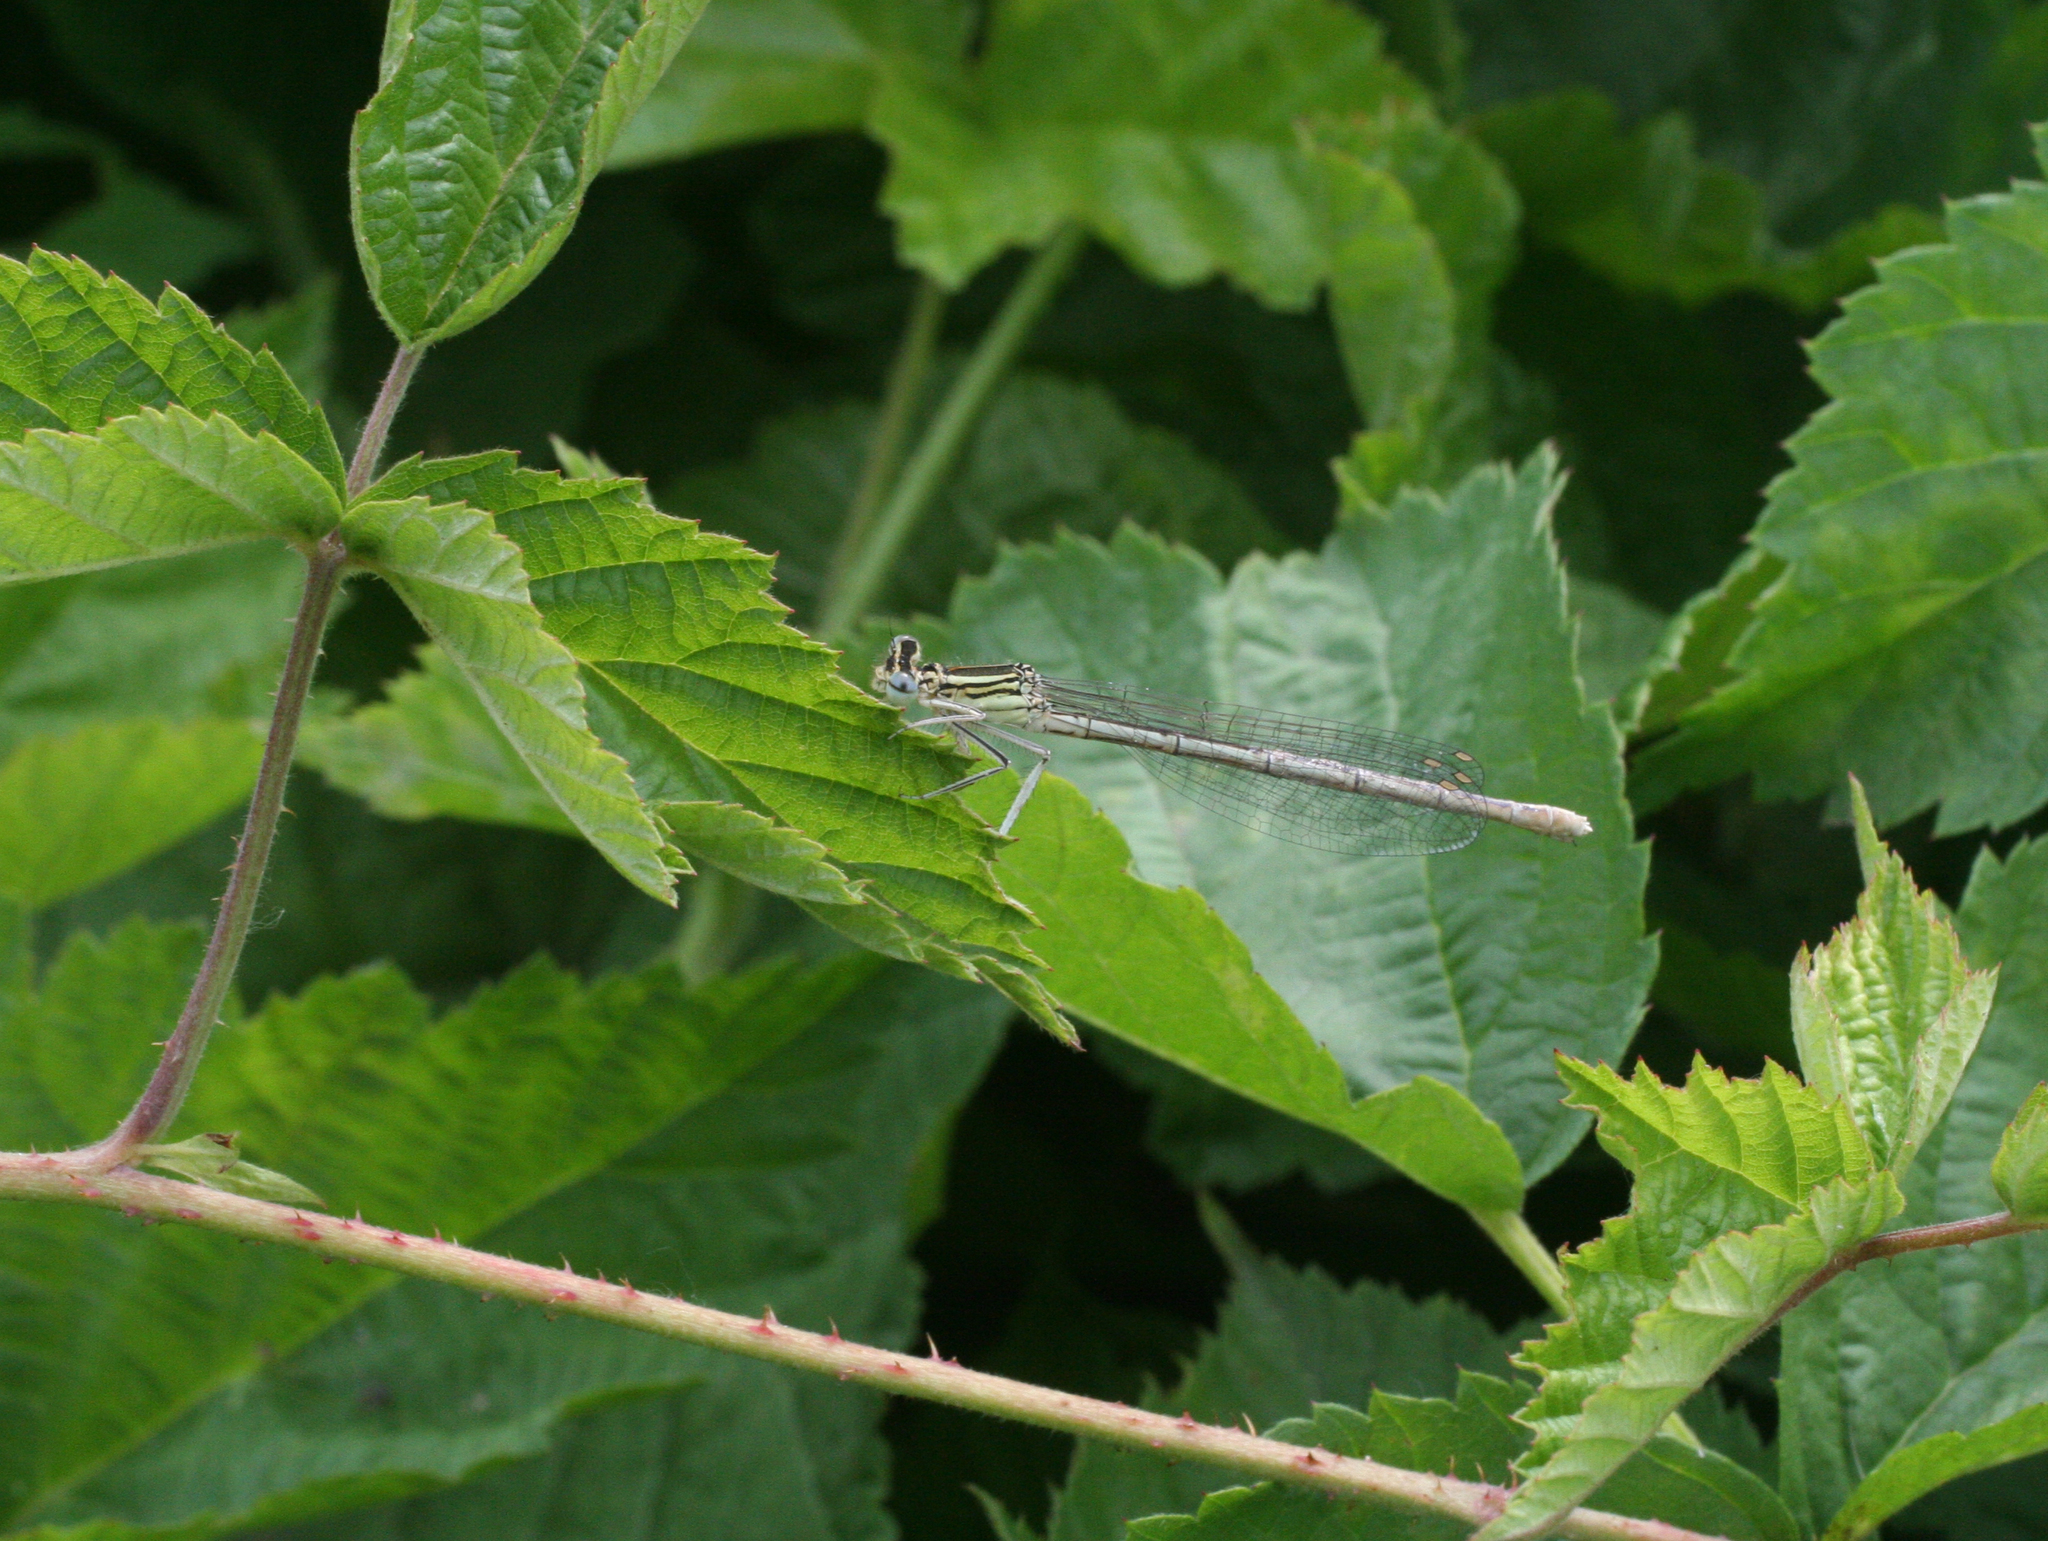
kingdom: Animalia
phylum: Arthropoda
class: Insecta
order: Odonata
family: Platycnemididae
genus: Platycnemis
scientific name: Platycnemis pennipes
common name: White-legged damselfly
